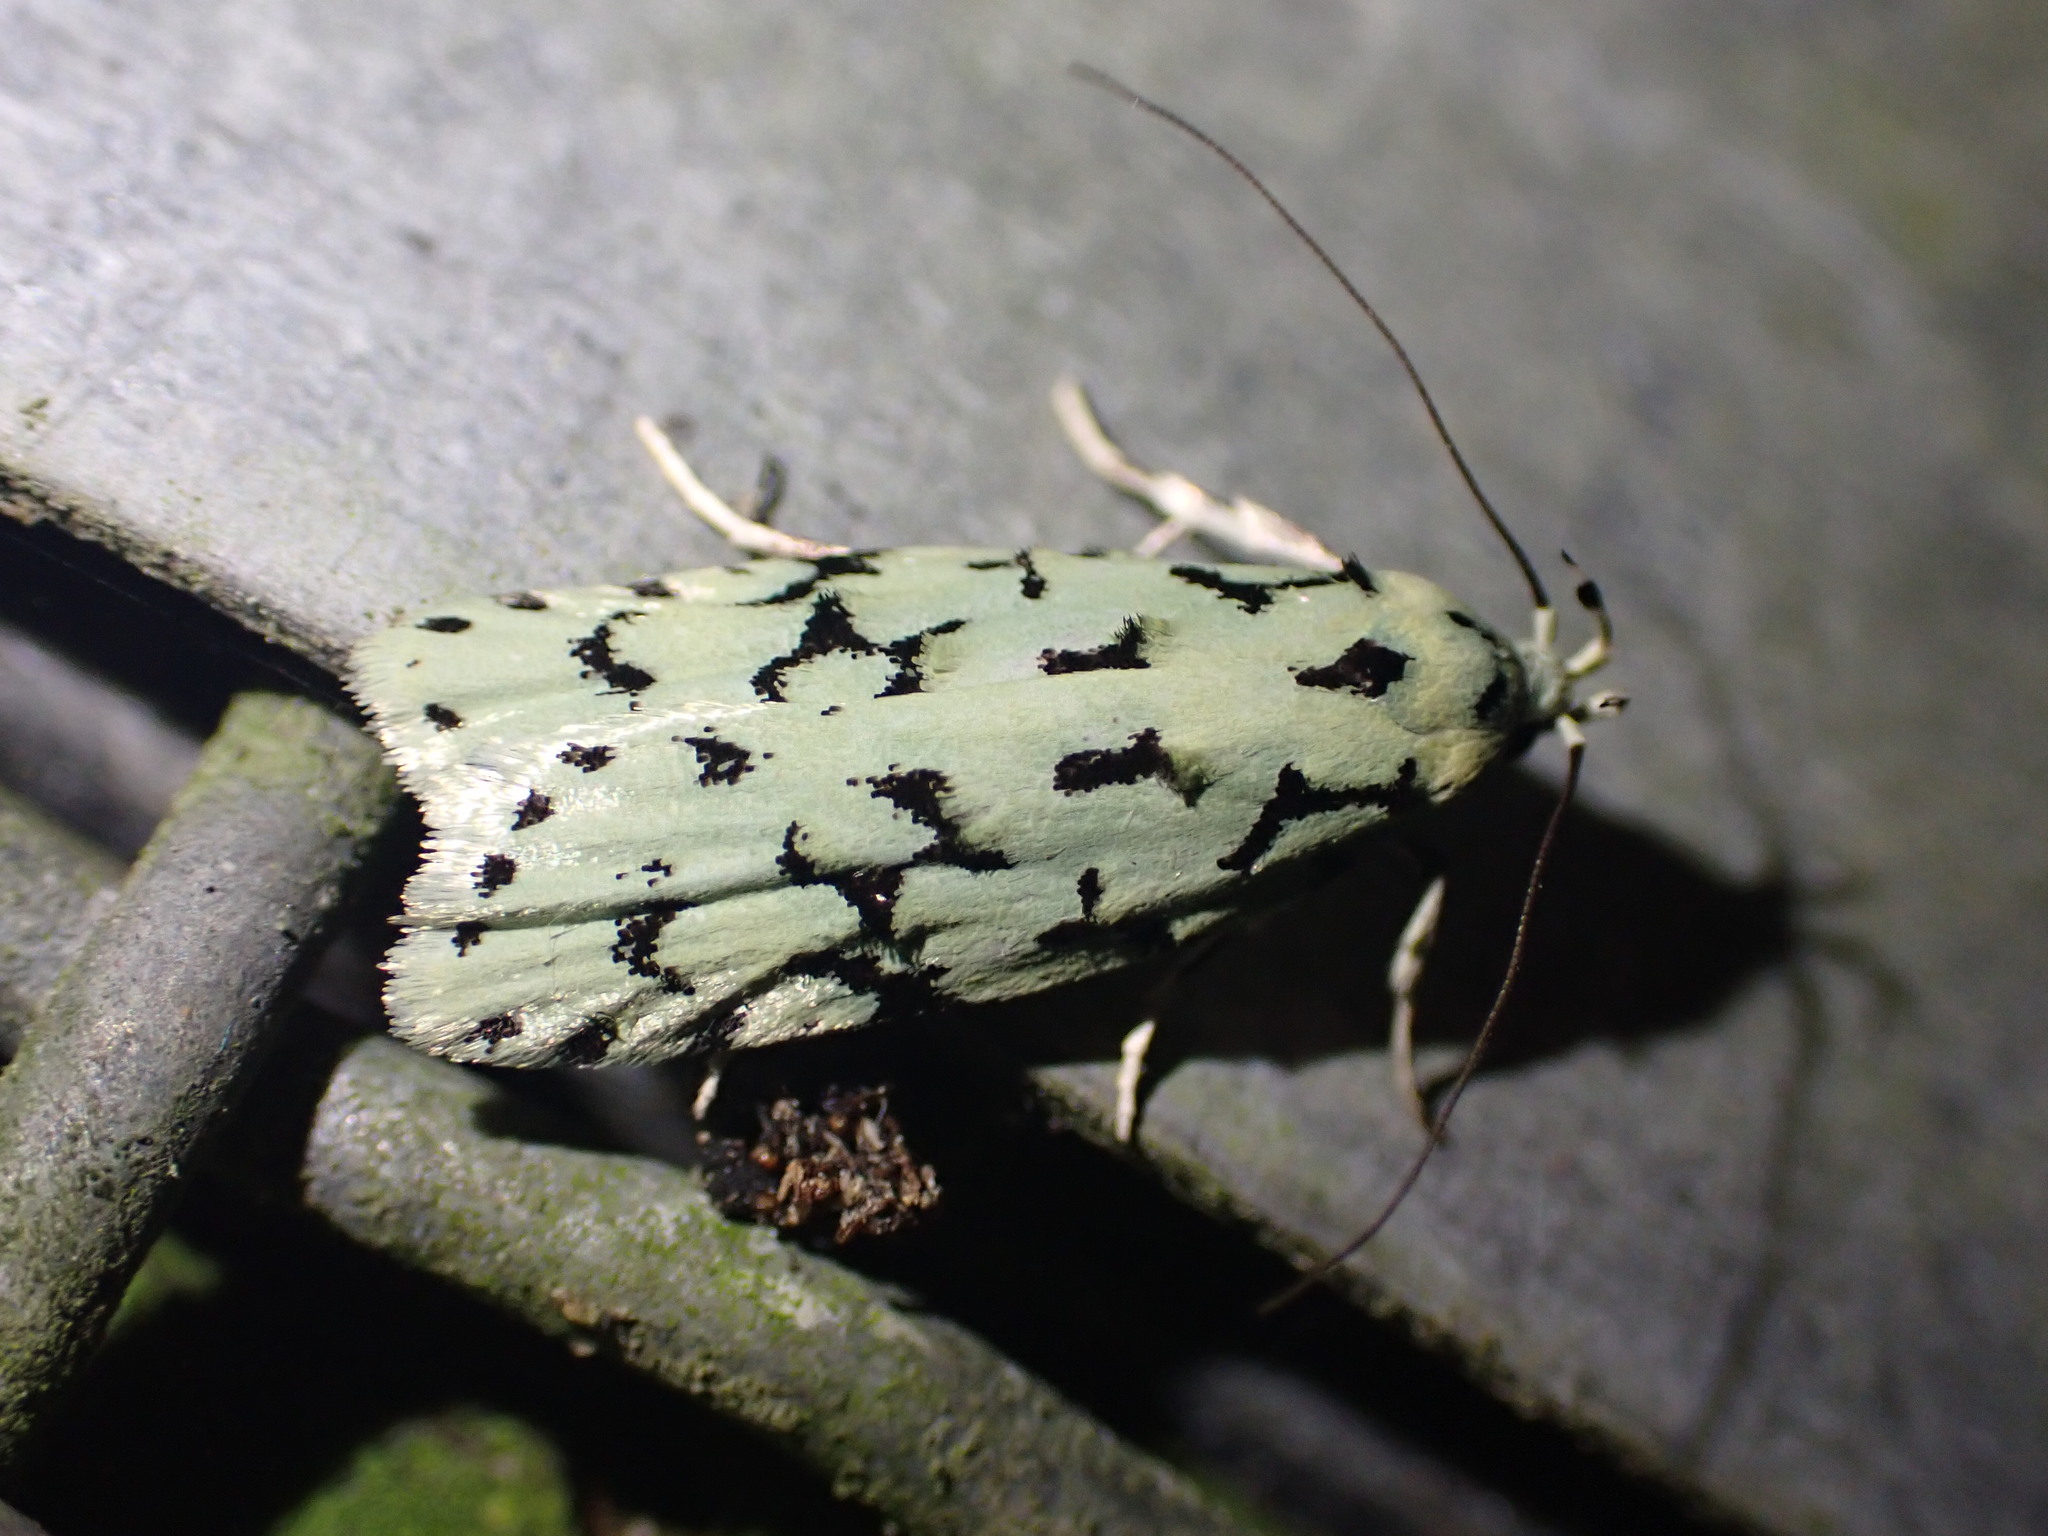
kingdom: Animalia
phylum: Arthropoda
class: Insecta
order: Lepidoptera
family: Oecophoridae
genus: Izatha
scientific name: Izatha huttoni
